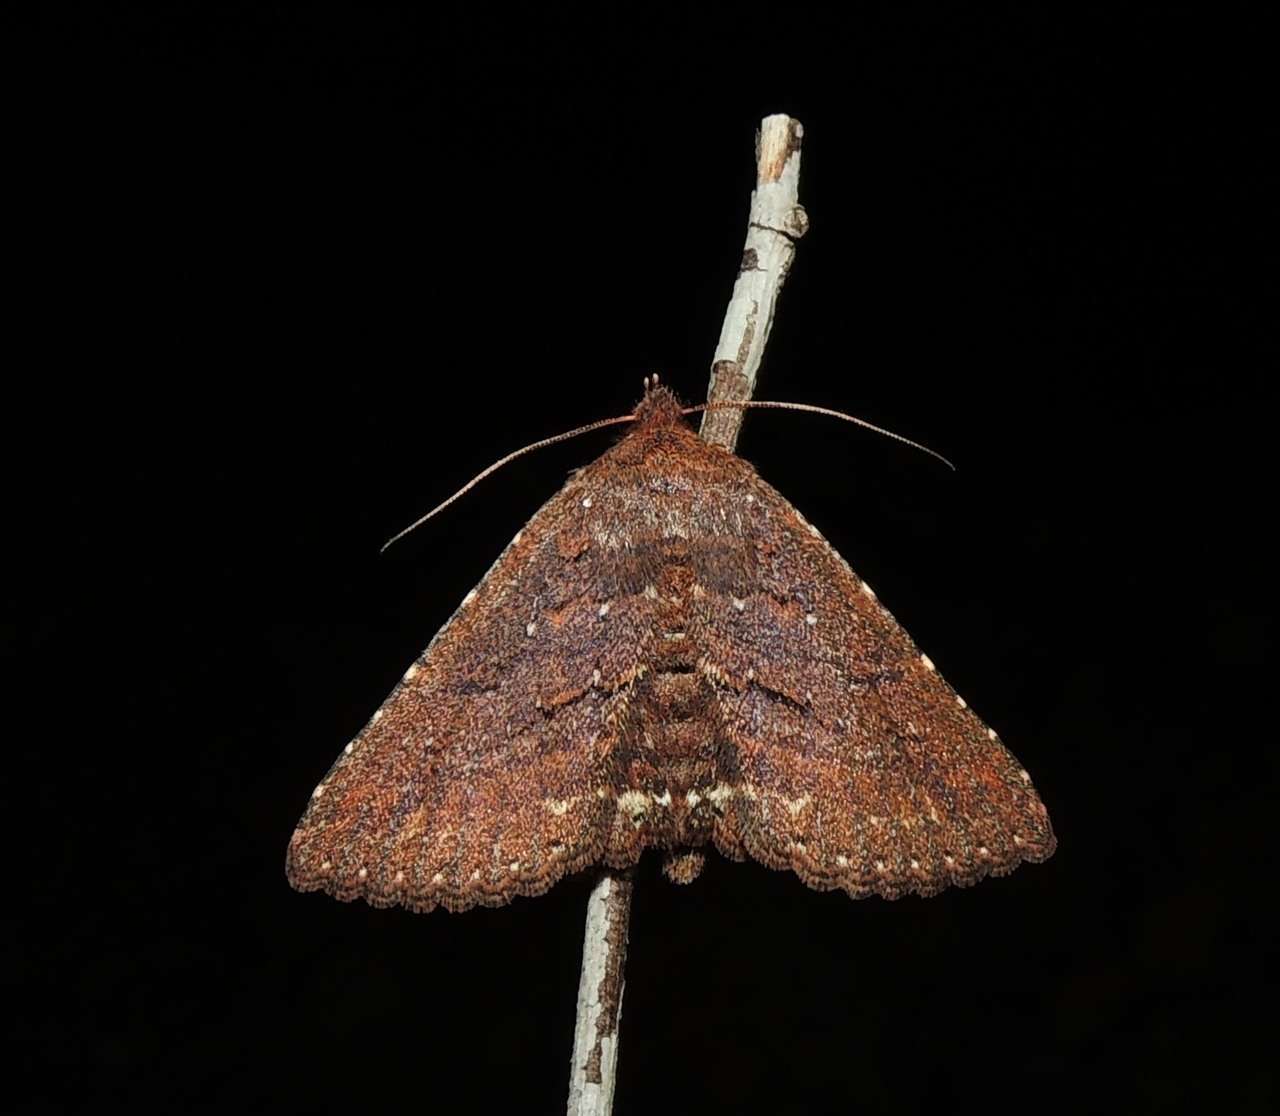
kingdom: Animalia
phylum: Arthropoda
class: Insecta
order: Lepidoptera
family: Erebidae
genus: Praxis
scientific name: Praxis porphyretica
